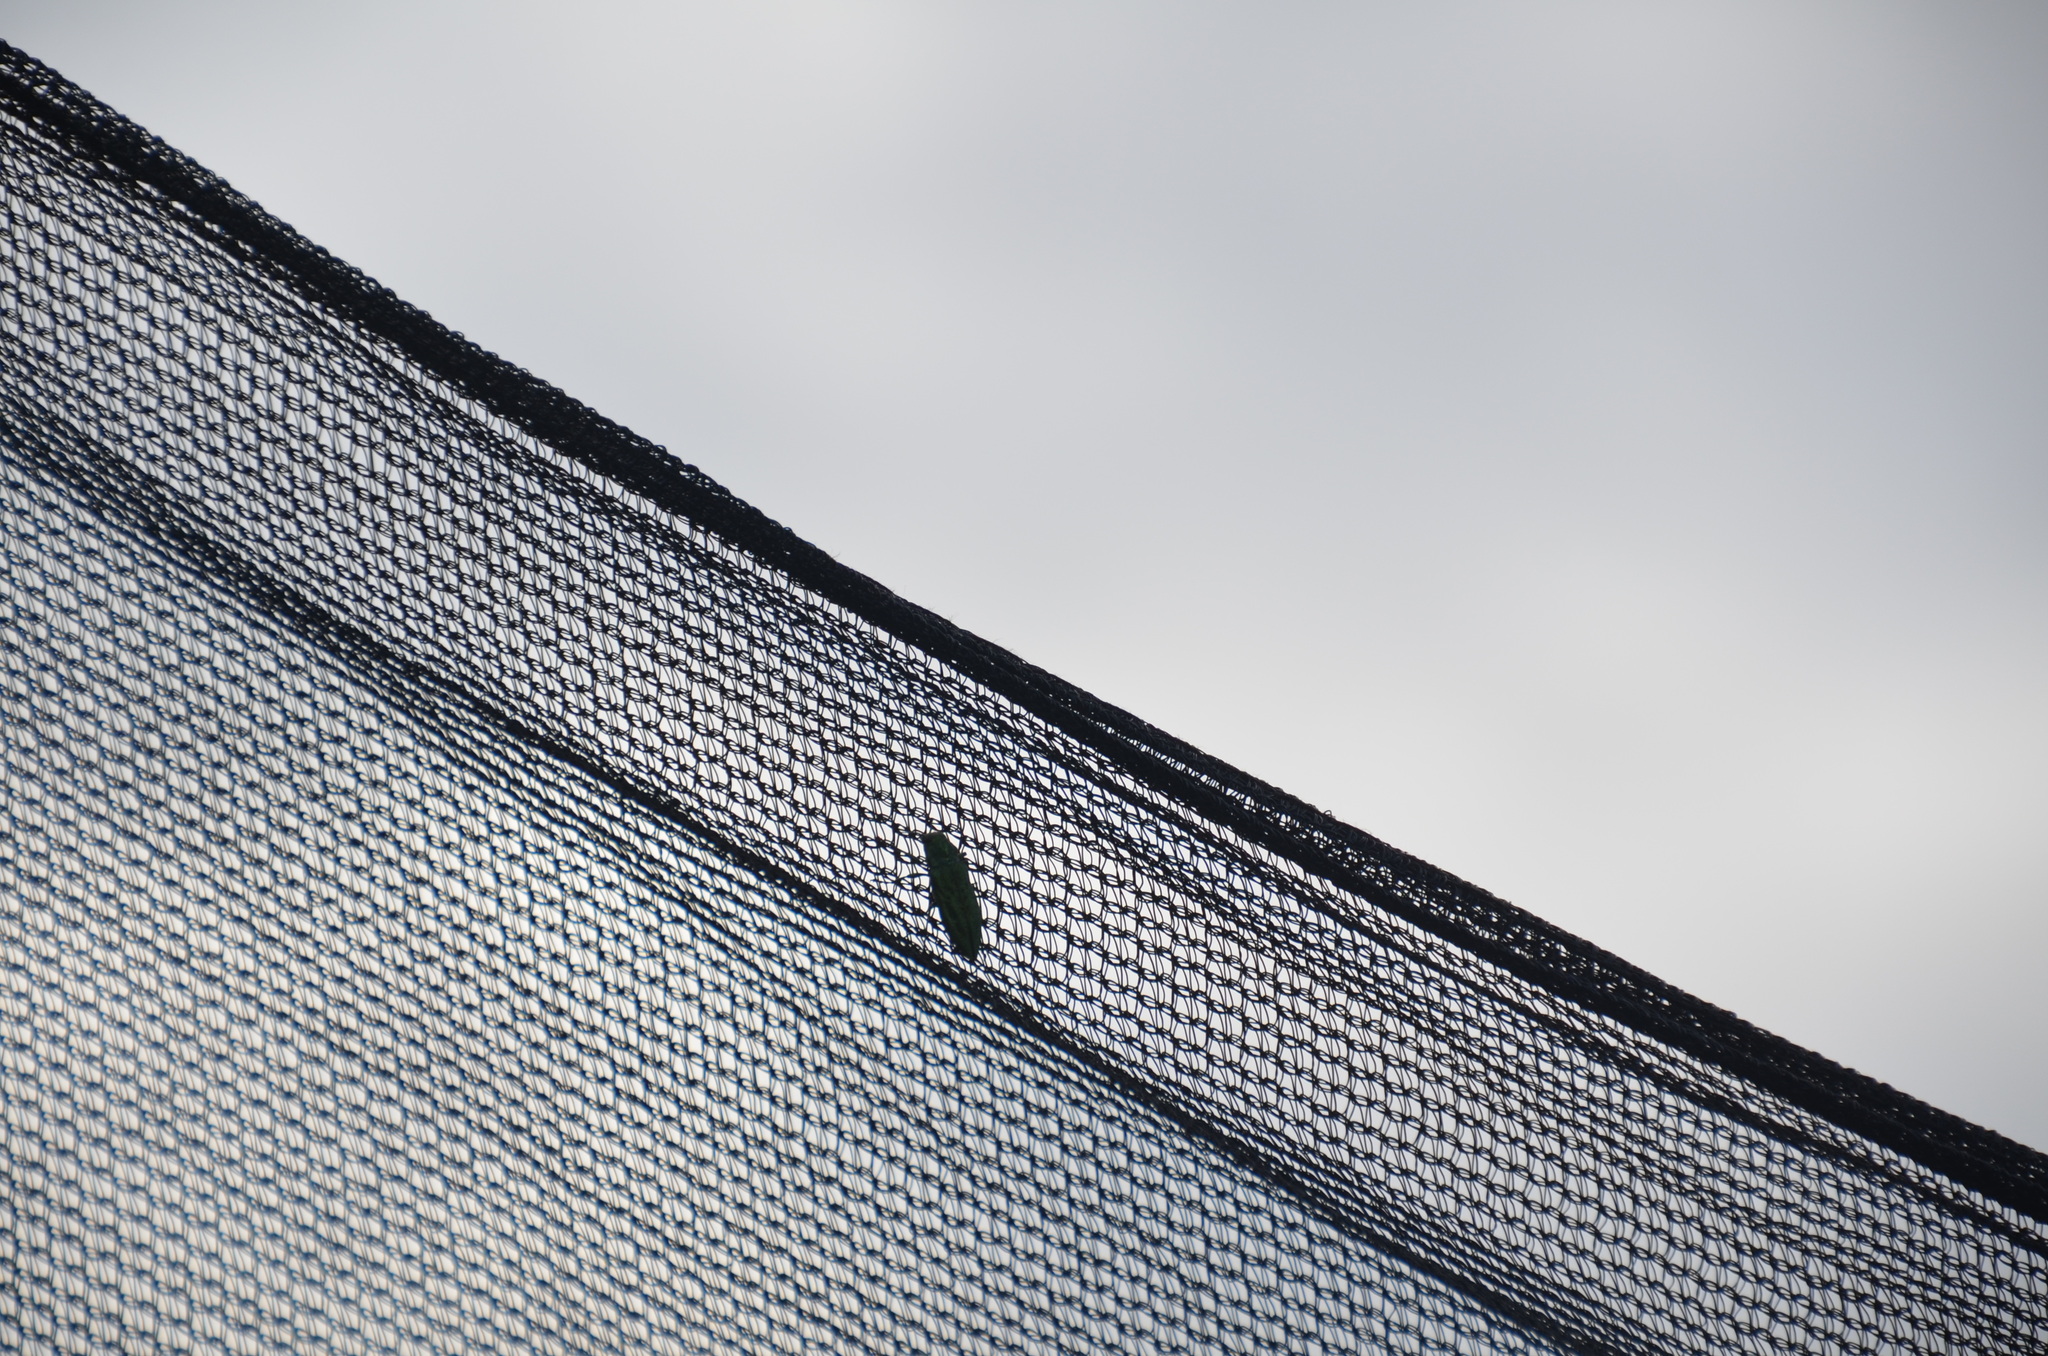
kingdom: Animalia
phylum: Arthropoda
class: Insecta
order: Coleoptera
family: Buprestidae
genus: Trachykele
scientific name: Trachykele blondeli
